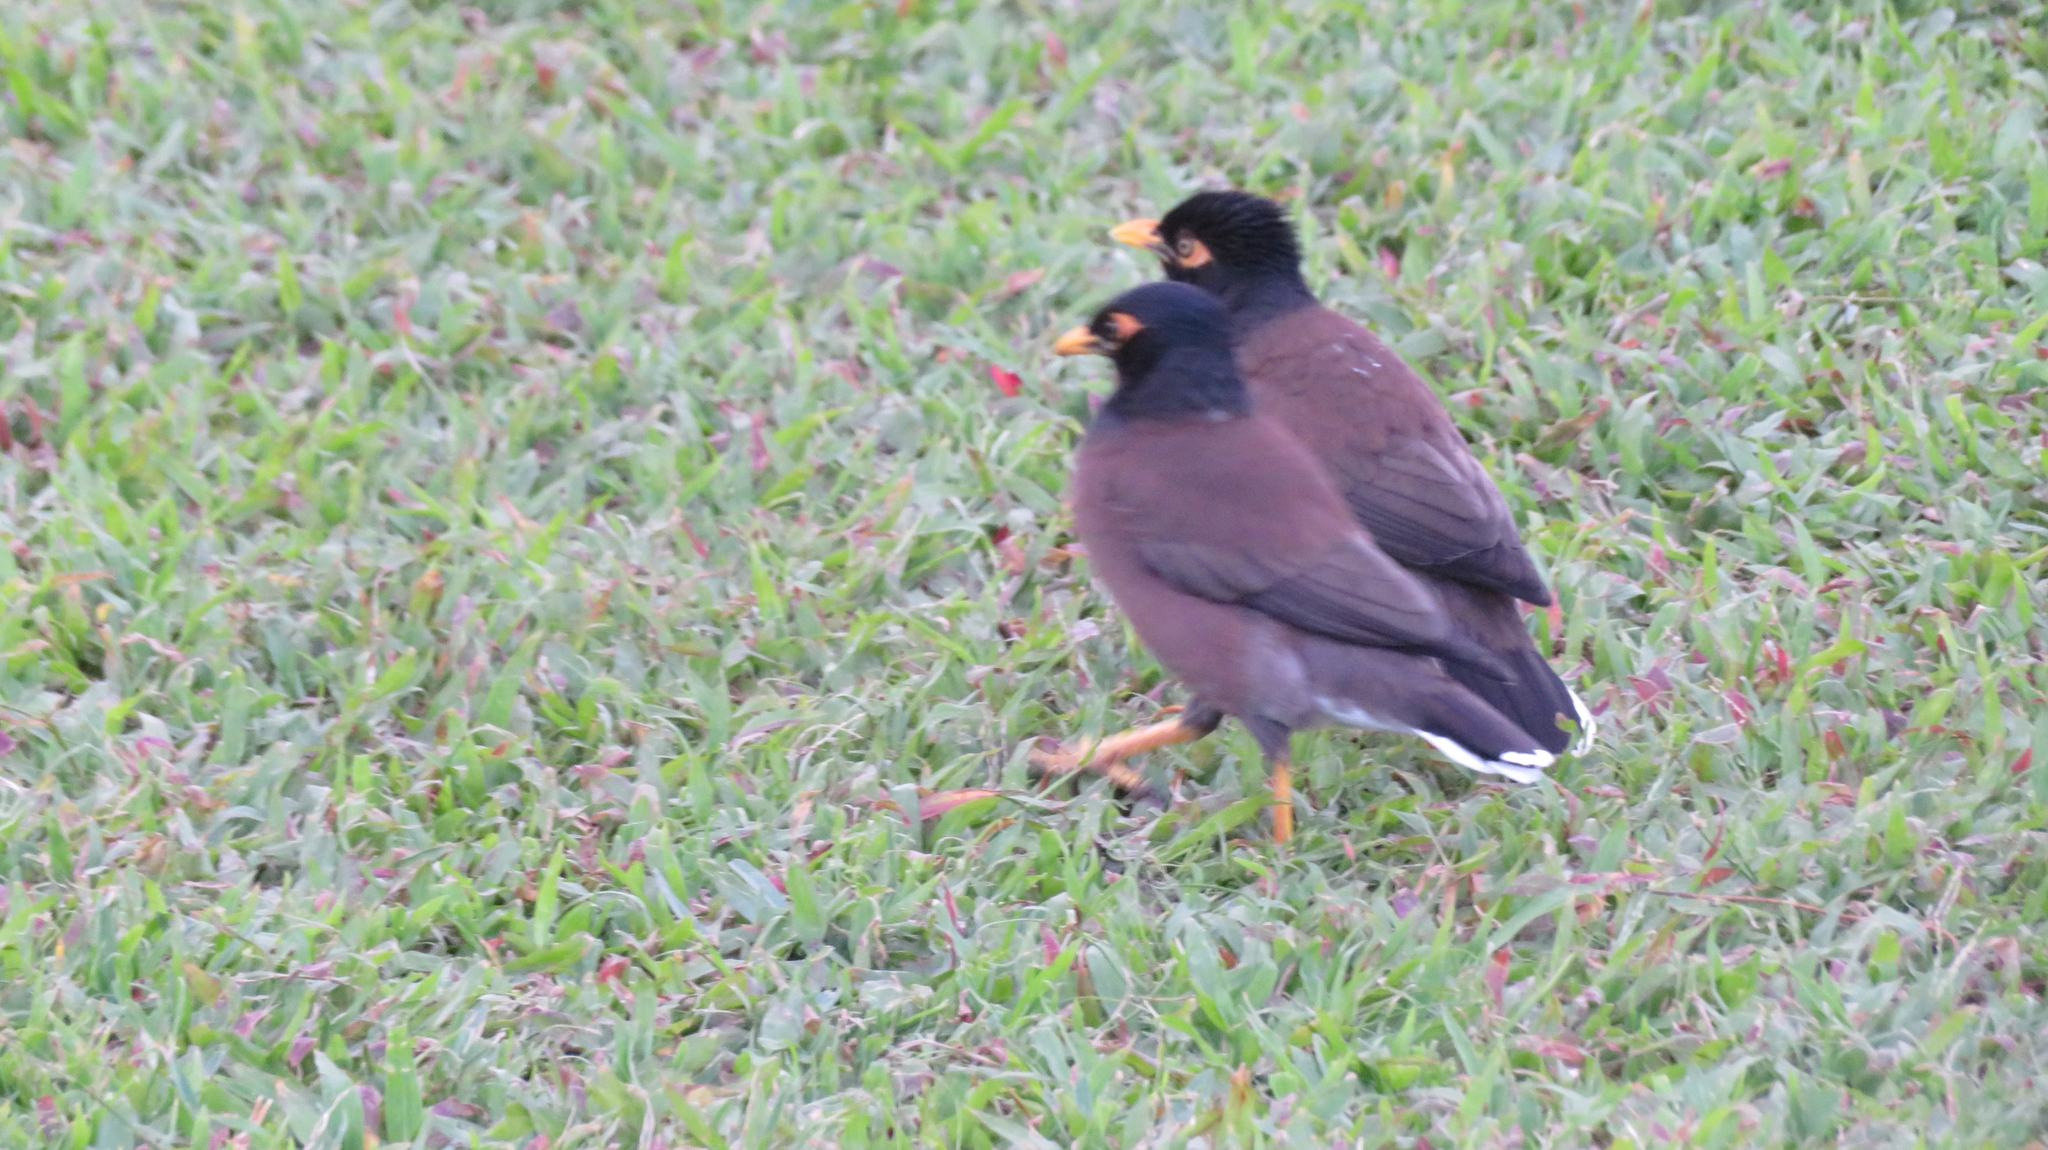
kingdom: Animalia
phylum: Chordata
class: Aves
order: Passeriformes
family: Sturnidae
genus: Acridotheres
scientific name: Acridotheres tristis
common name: Common myna
